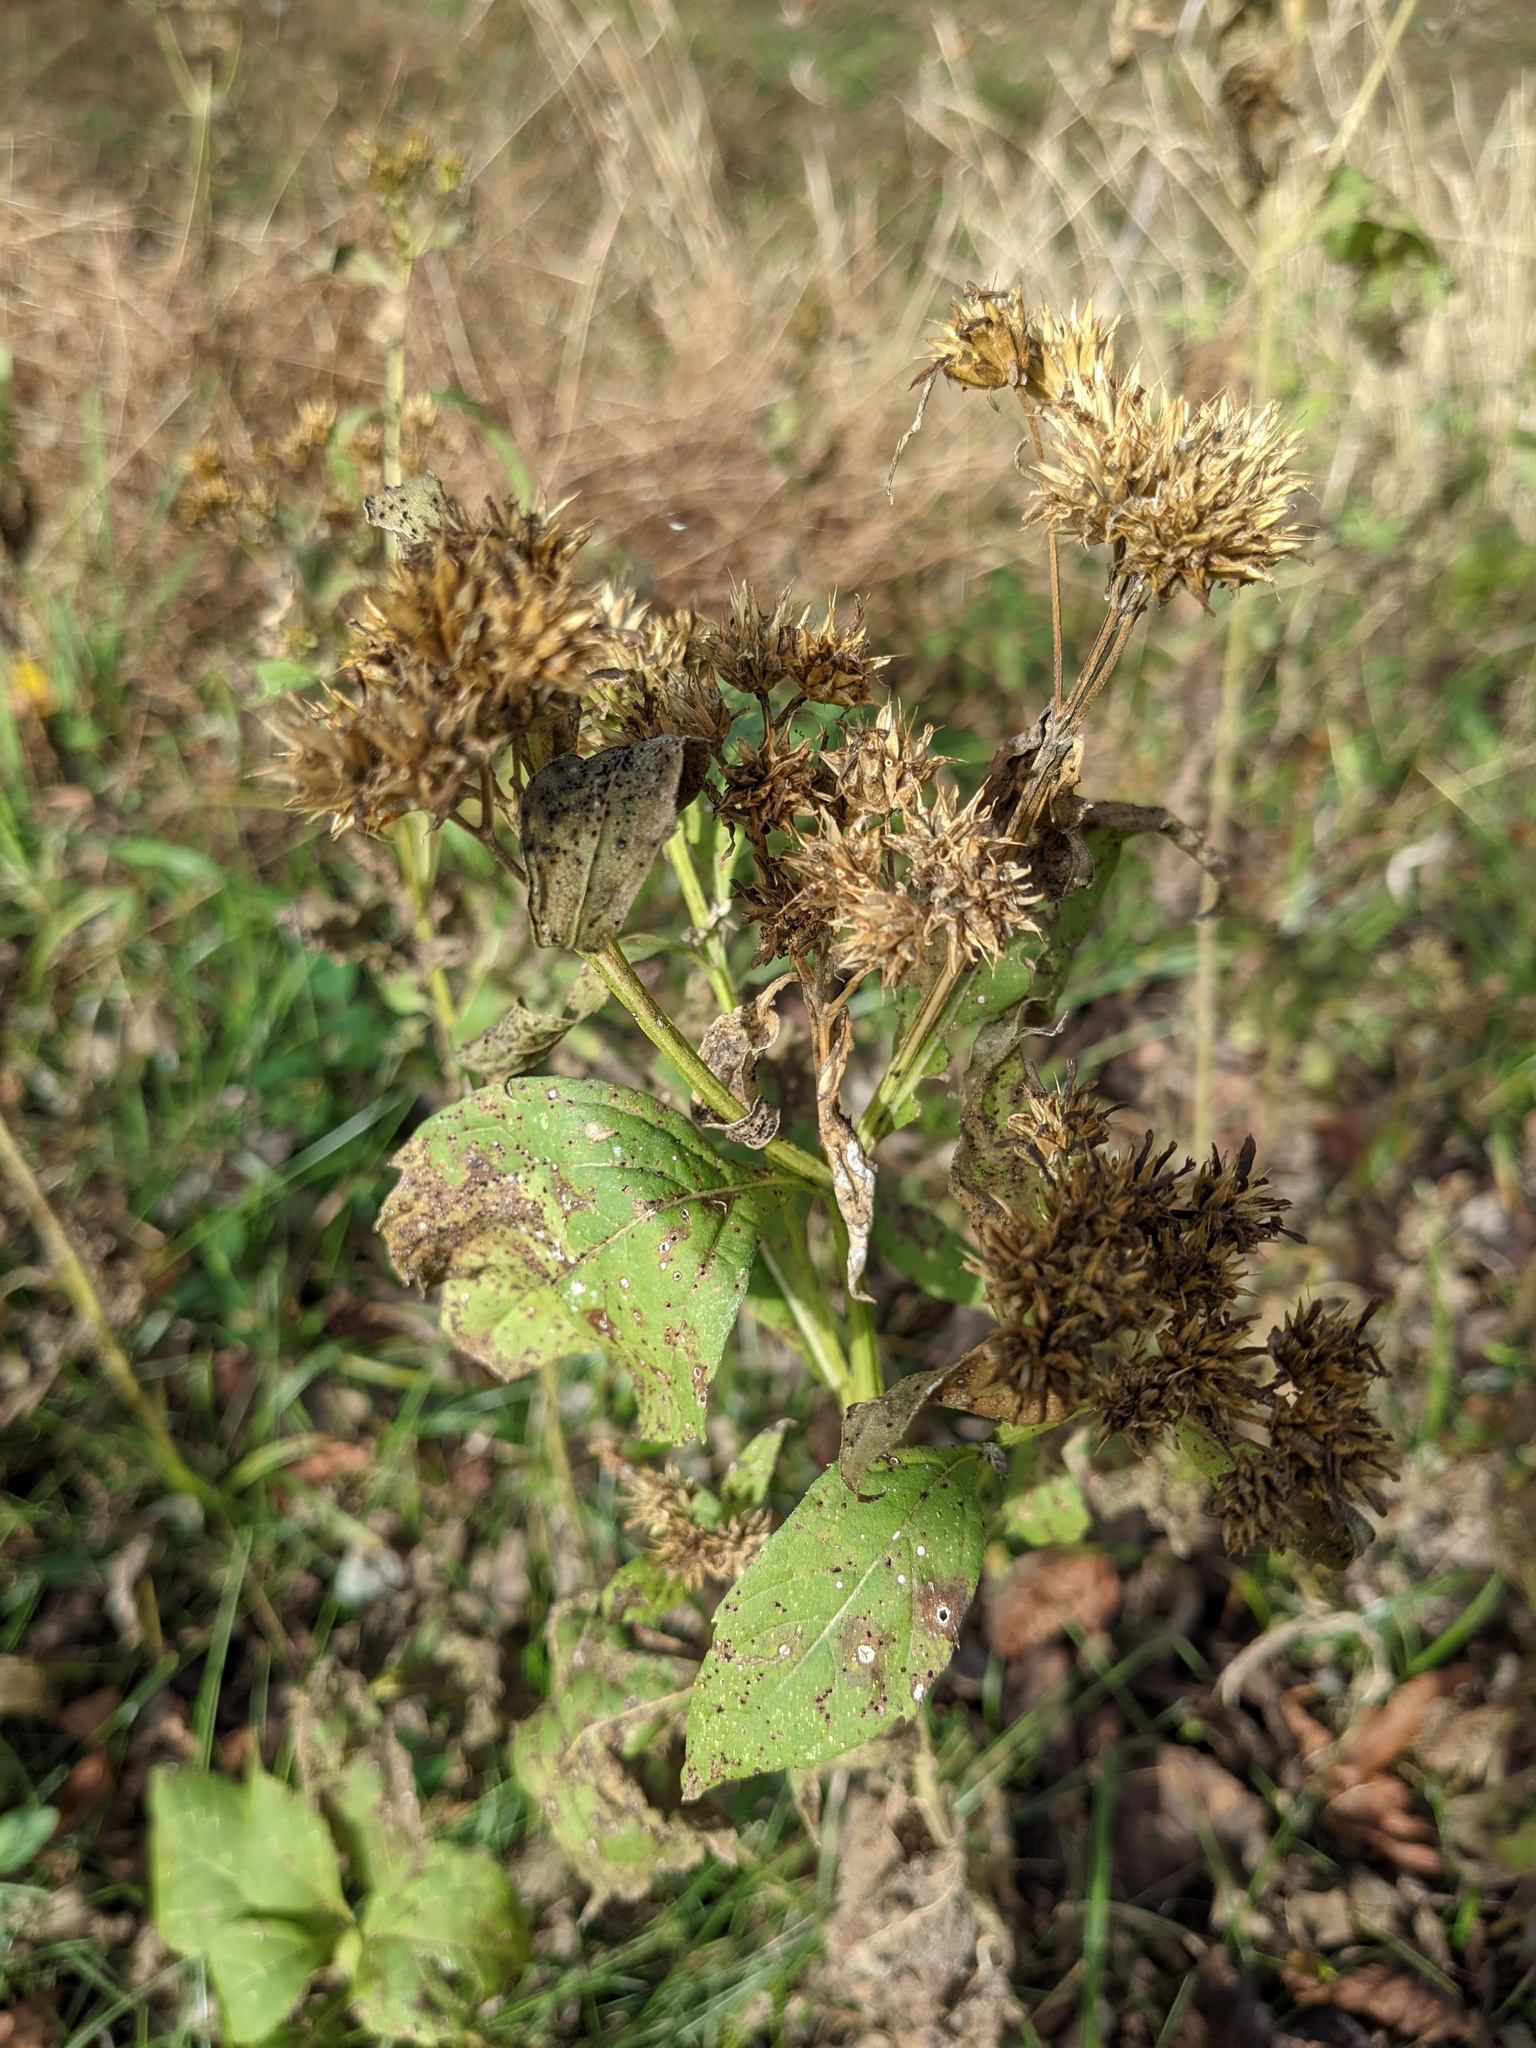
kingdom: Plantae
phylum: Tracheophyta
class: Magnoliopsida
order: Asterales
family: Asteraceae
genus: Verbesina
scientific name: Verbesina occidentalis
